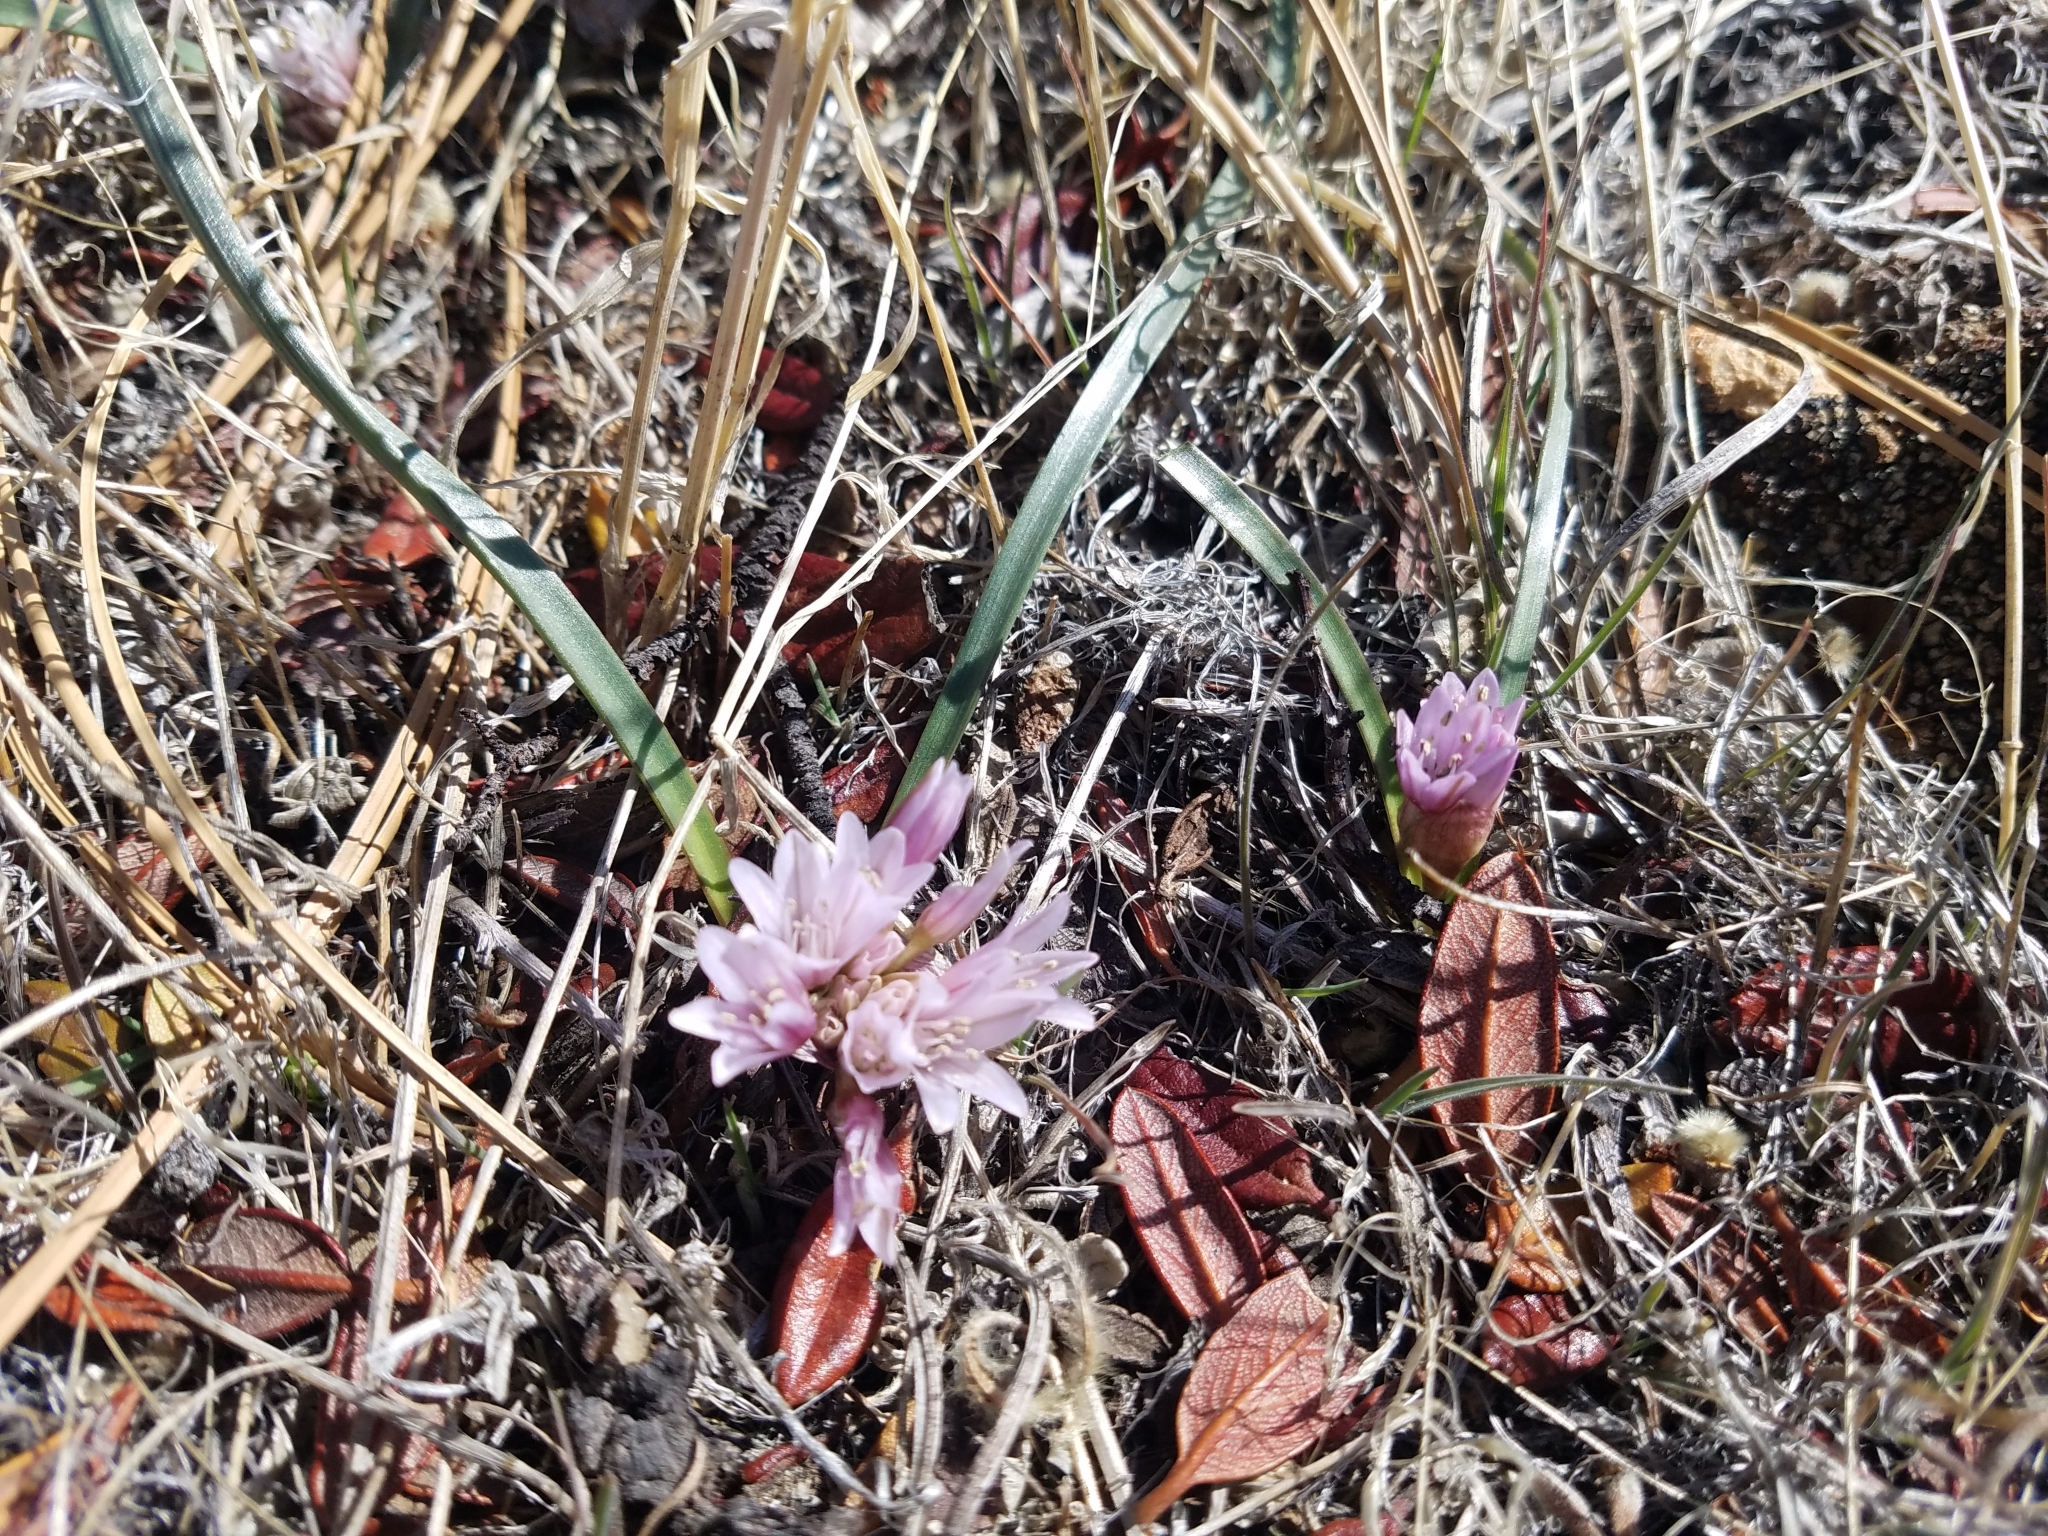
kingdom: Plantae
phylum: Tracheophyta
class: Liliopsida
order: Asparagales
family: Amaryllidaceae
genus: Allium
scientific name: Allium parvum
